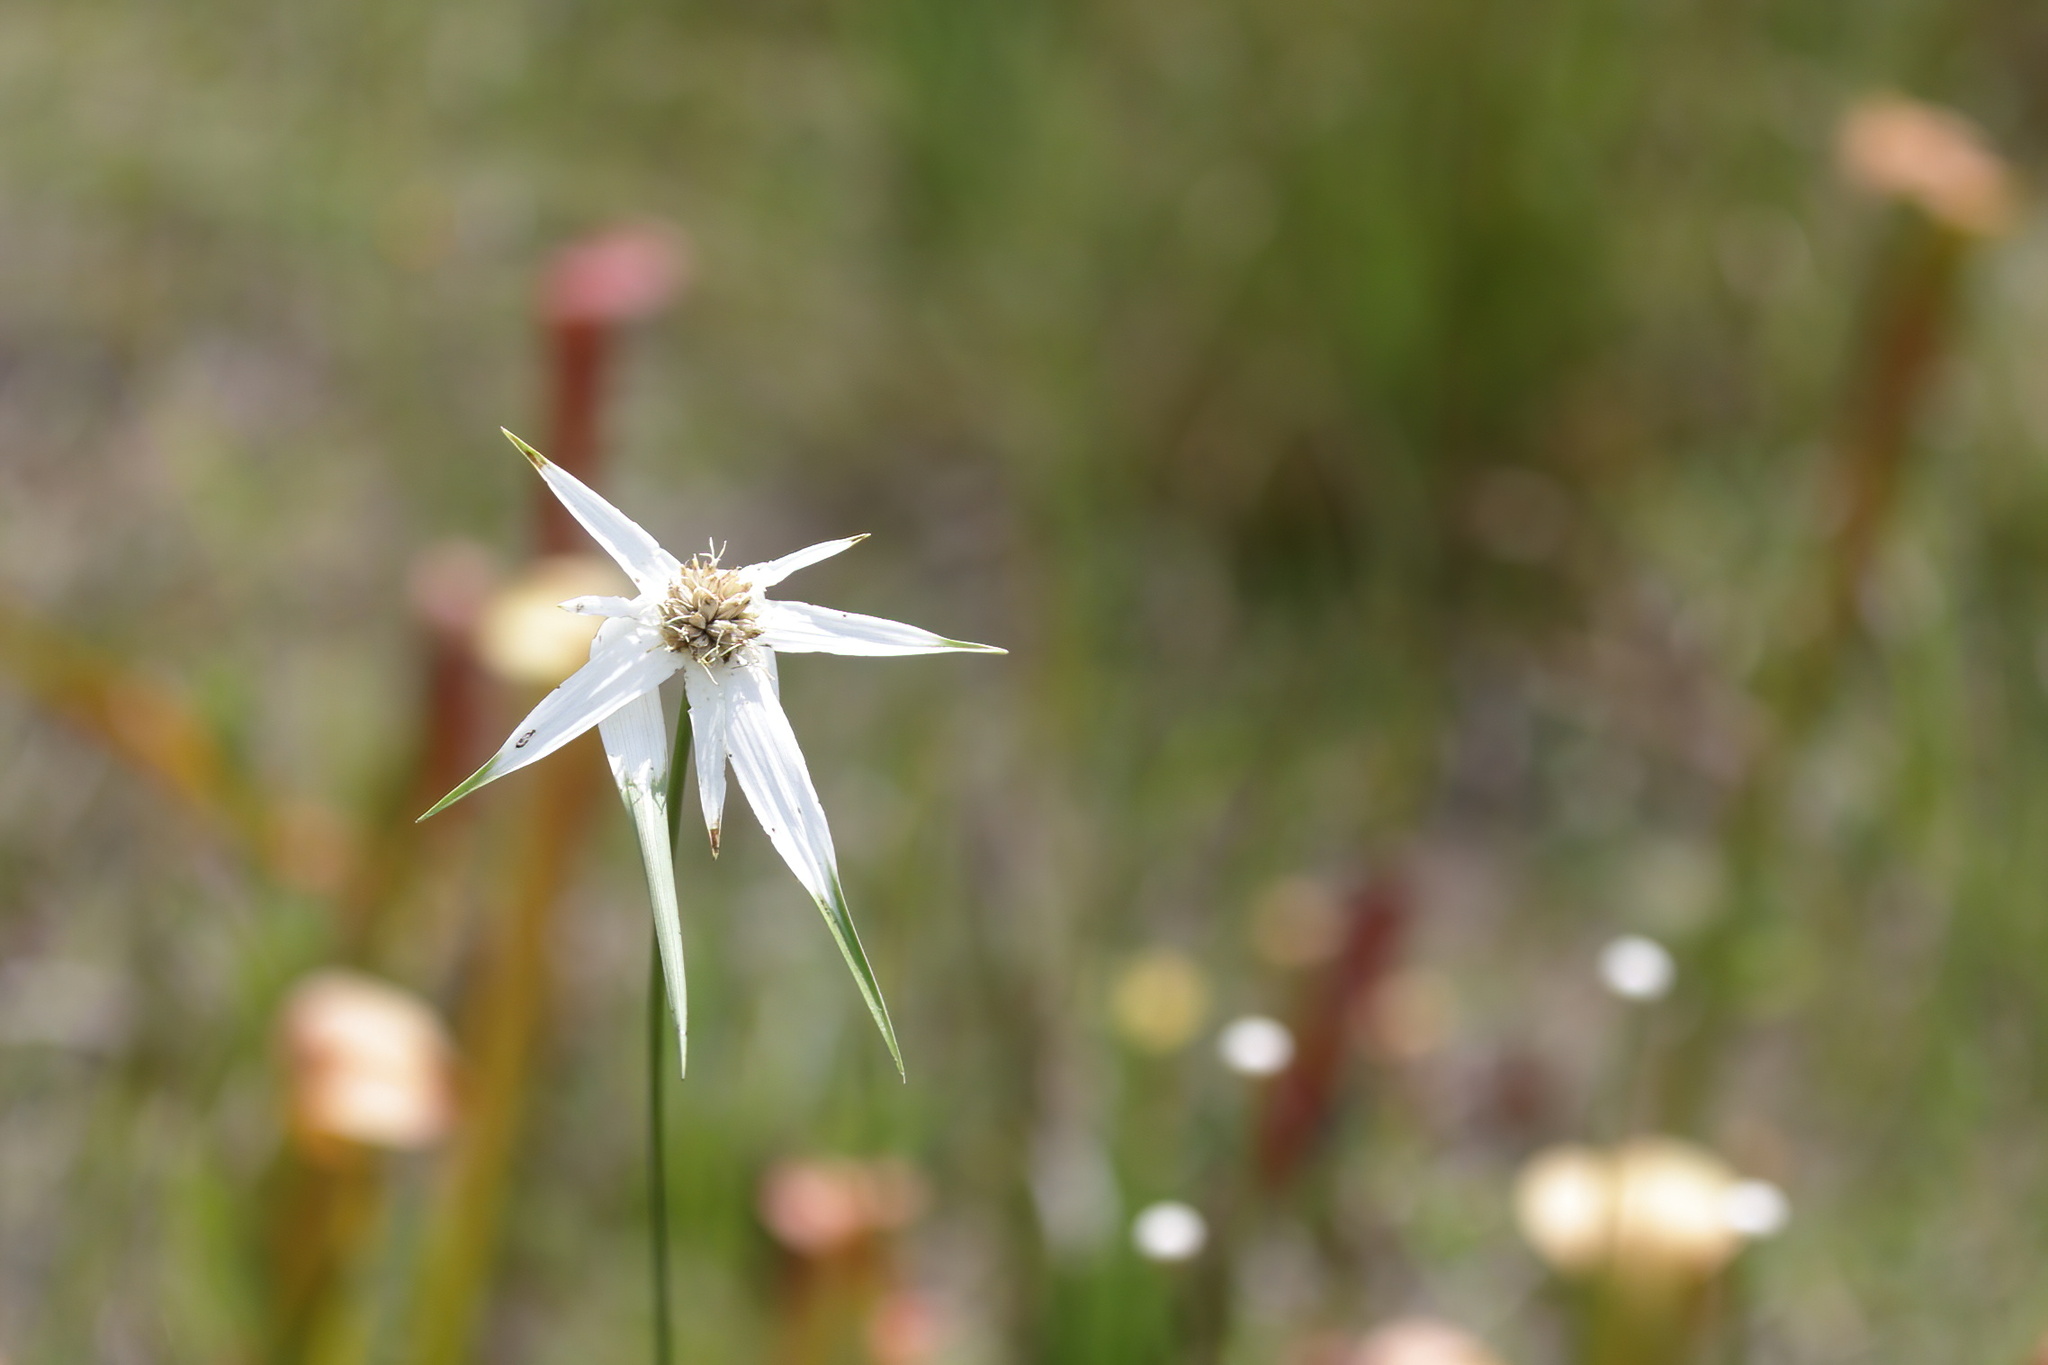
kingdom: Plantae
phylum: Tracheophyta
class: Liliopsida
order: Poales
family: Cyperaceae
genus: Rhynchospora
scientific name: Rhynchospora latifolia
